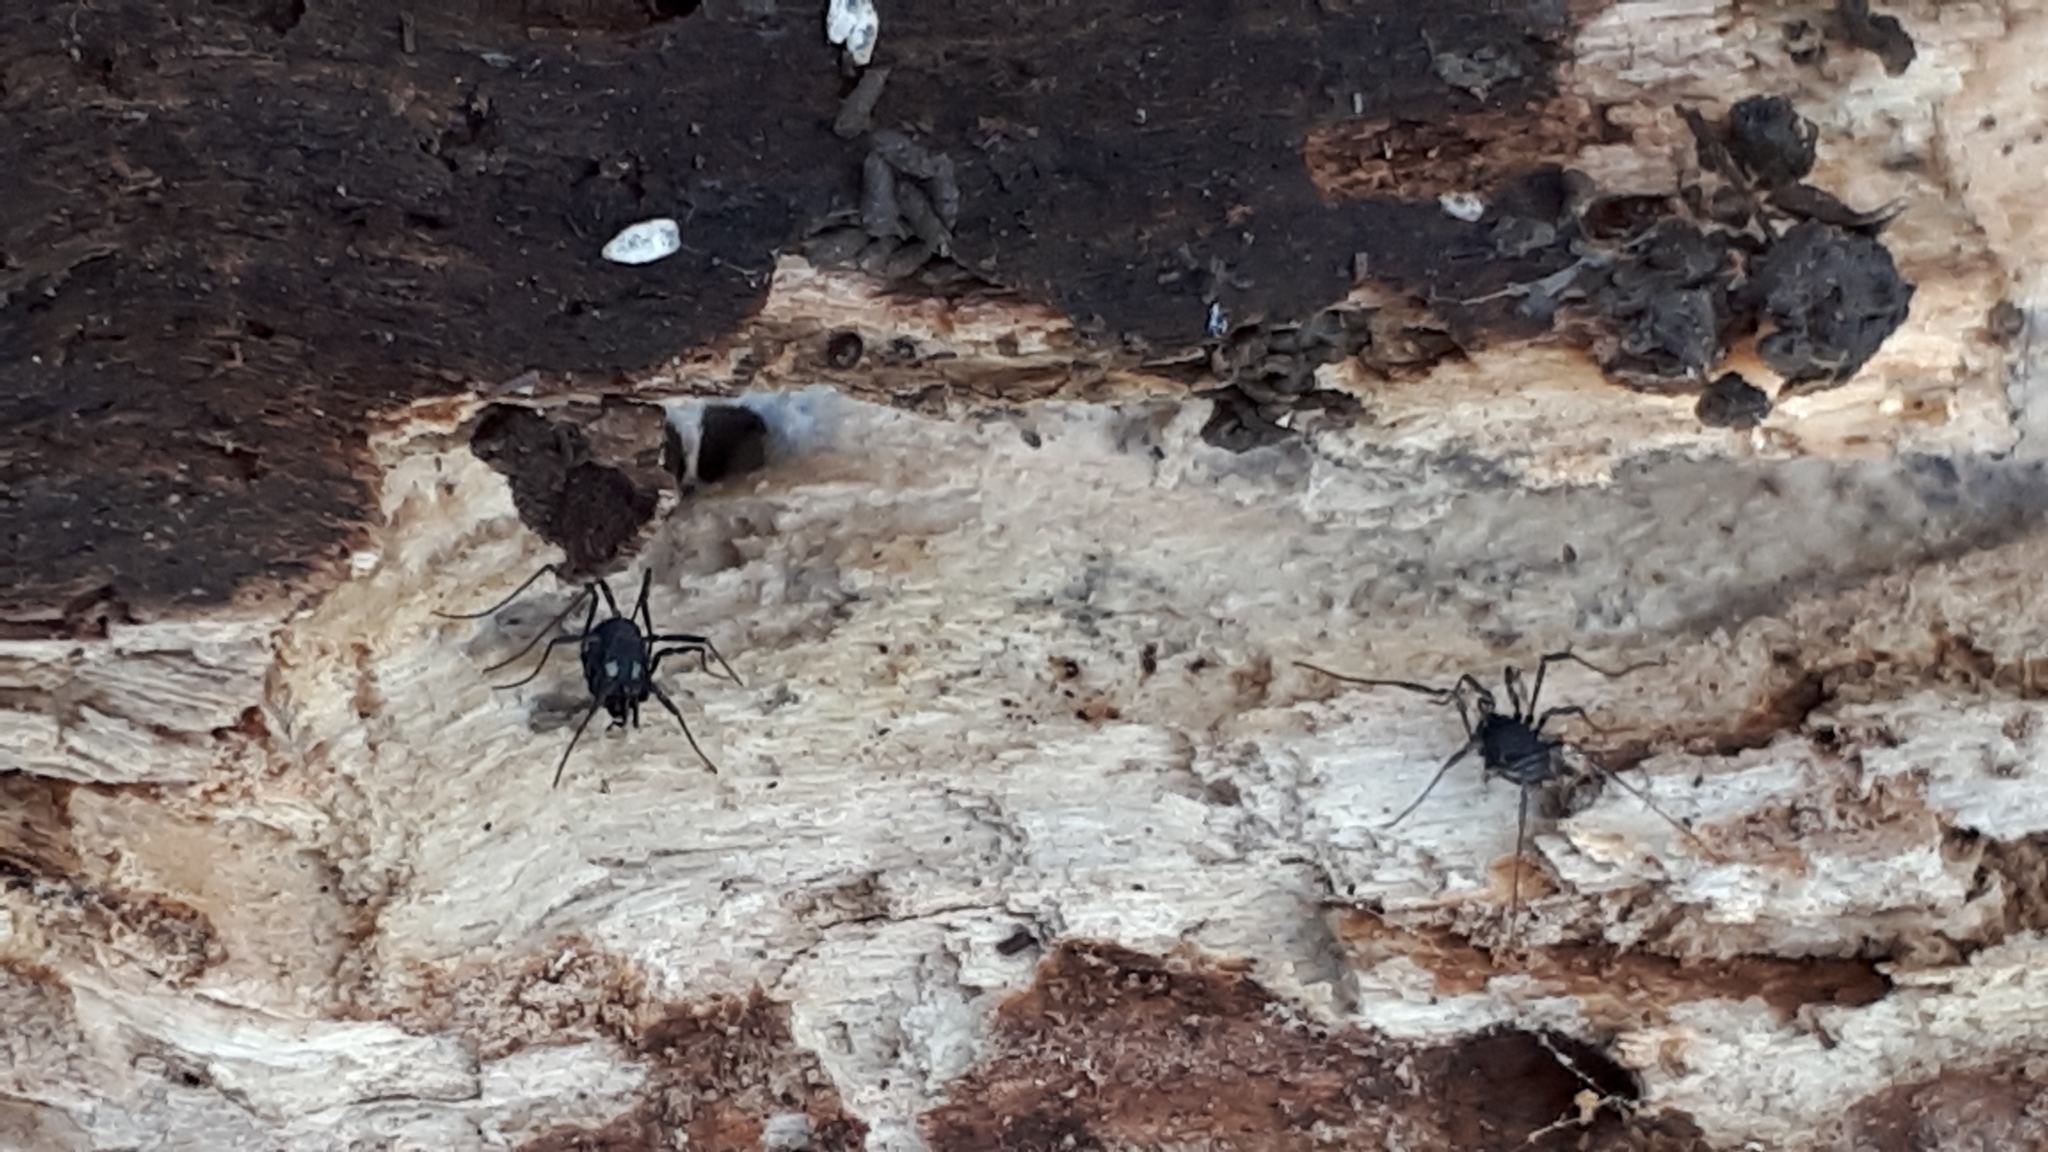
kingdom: Animalia
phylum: Arthropoda
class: Arachnida
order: Opiliones
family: Nemastomatidae
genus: Nemastoma
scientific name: Nemastoma lugubre
